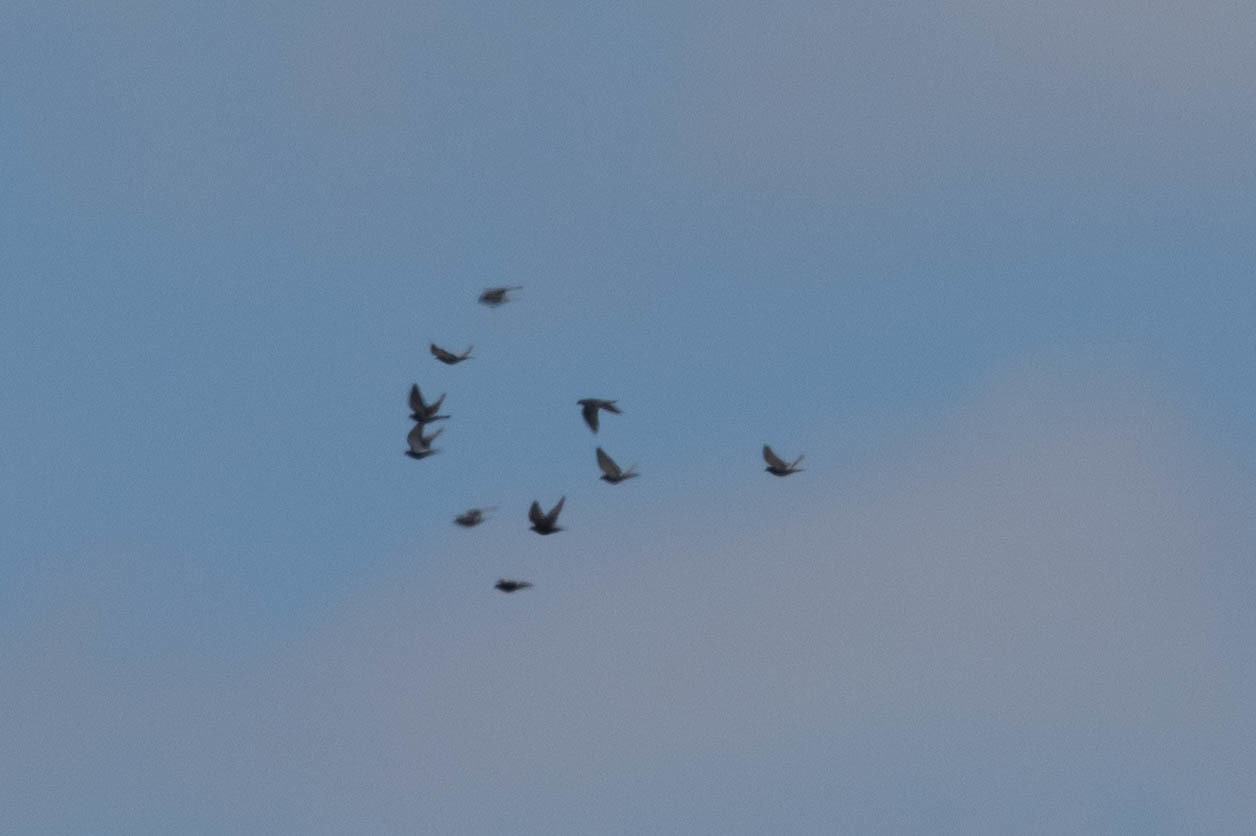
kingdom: Animalia
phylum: Chordata
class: Aves
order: Columbiformes
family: Columbidae
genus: Columba
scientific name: Columba livia
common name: Rock pigeon
